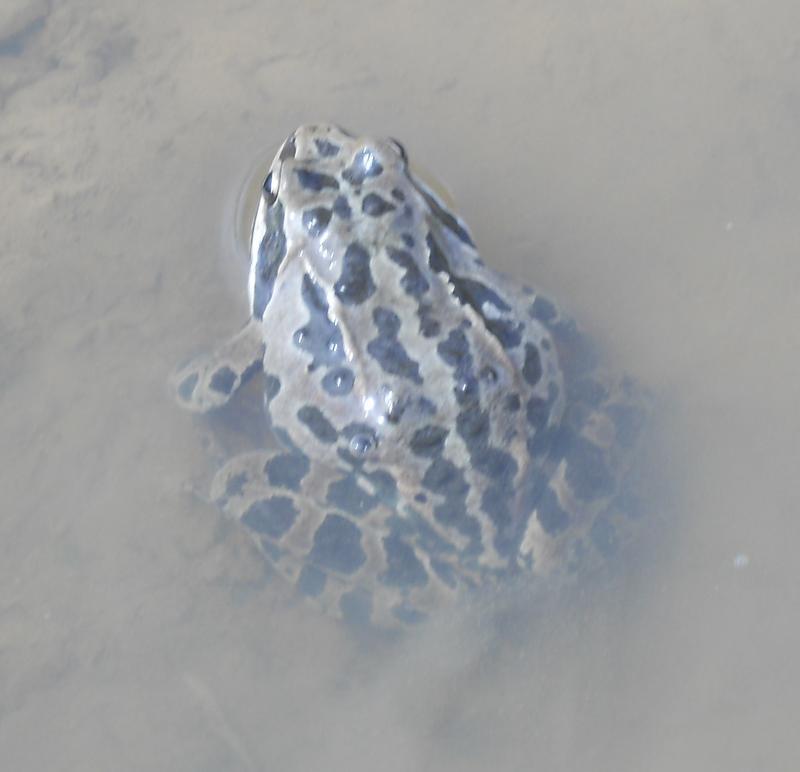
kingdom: Animalia
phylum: Chordata
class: Amphibia
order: Anura
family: Ranidae
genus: Rana
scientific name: Rana macrocnemis
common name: Banded frog
